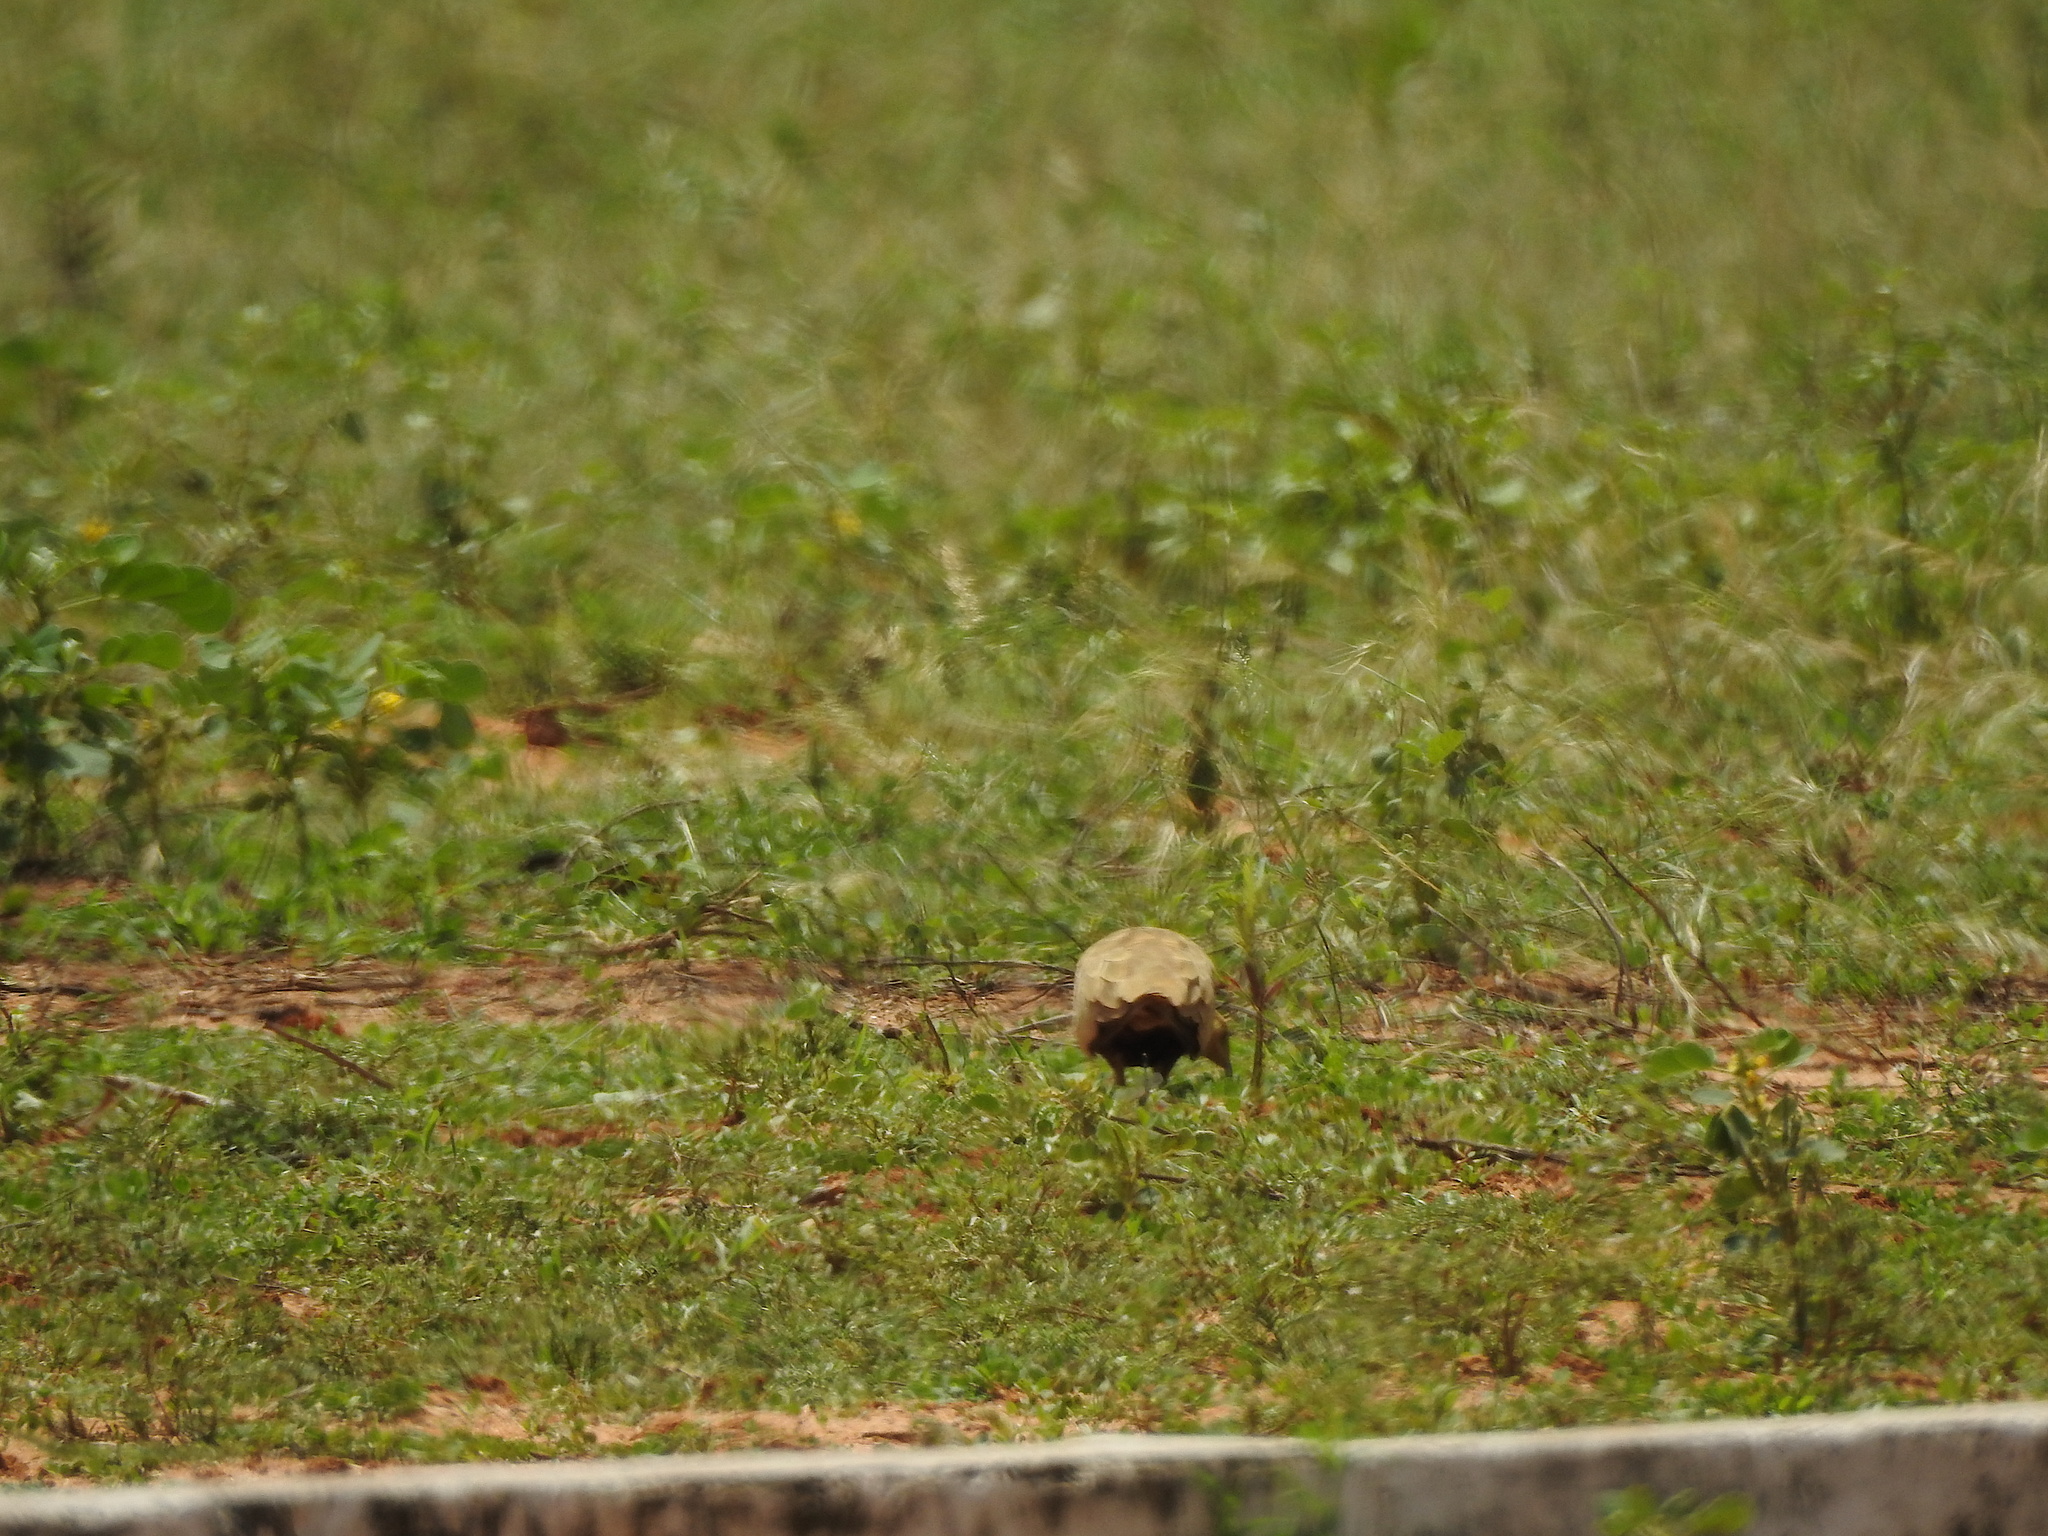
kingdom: Animalia
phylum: Chordata
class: Aves
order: Pteroclidiformes
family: Pteroclididae
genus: Pterocles
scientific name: Pterocles exustus
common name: Chestnut-bellied sandgrouse
